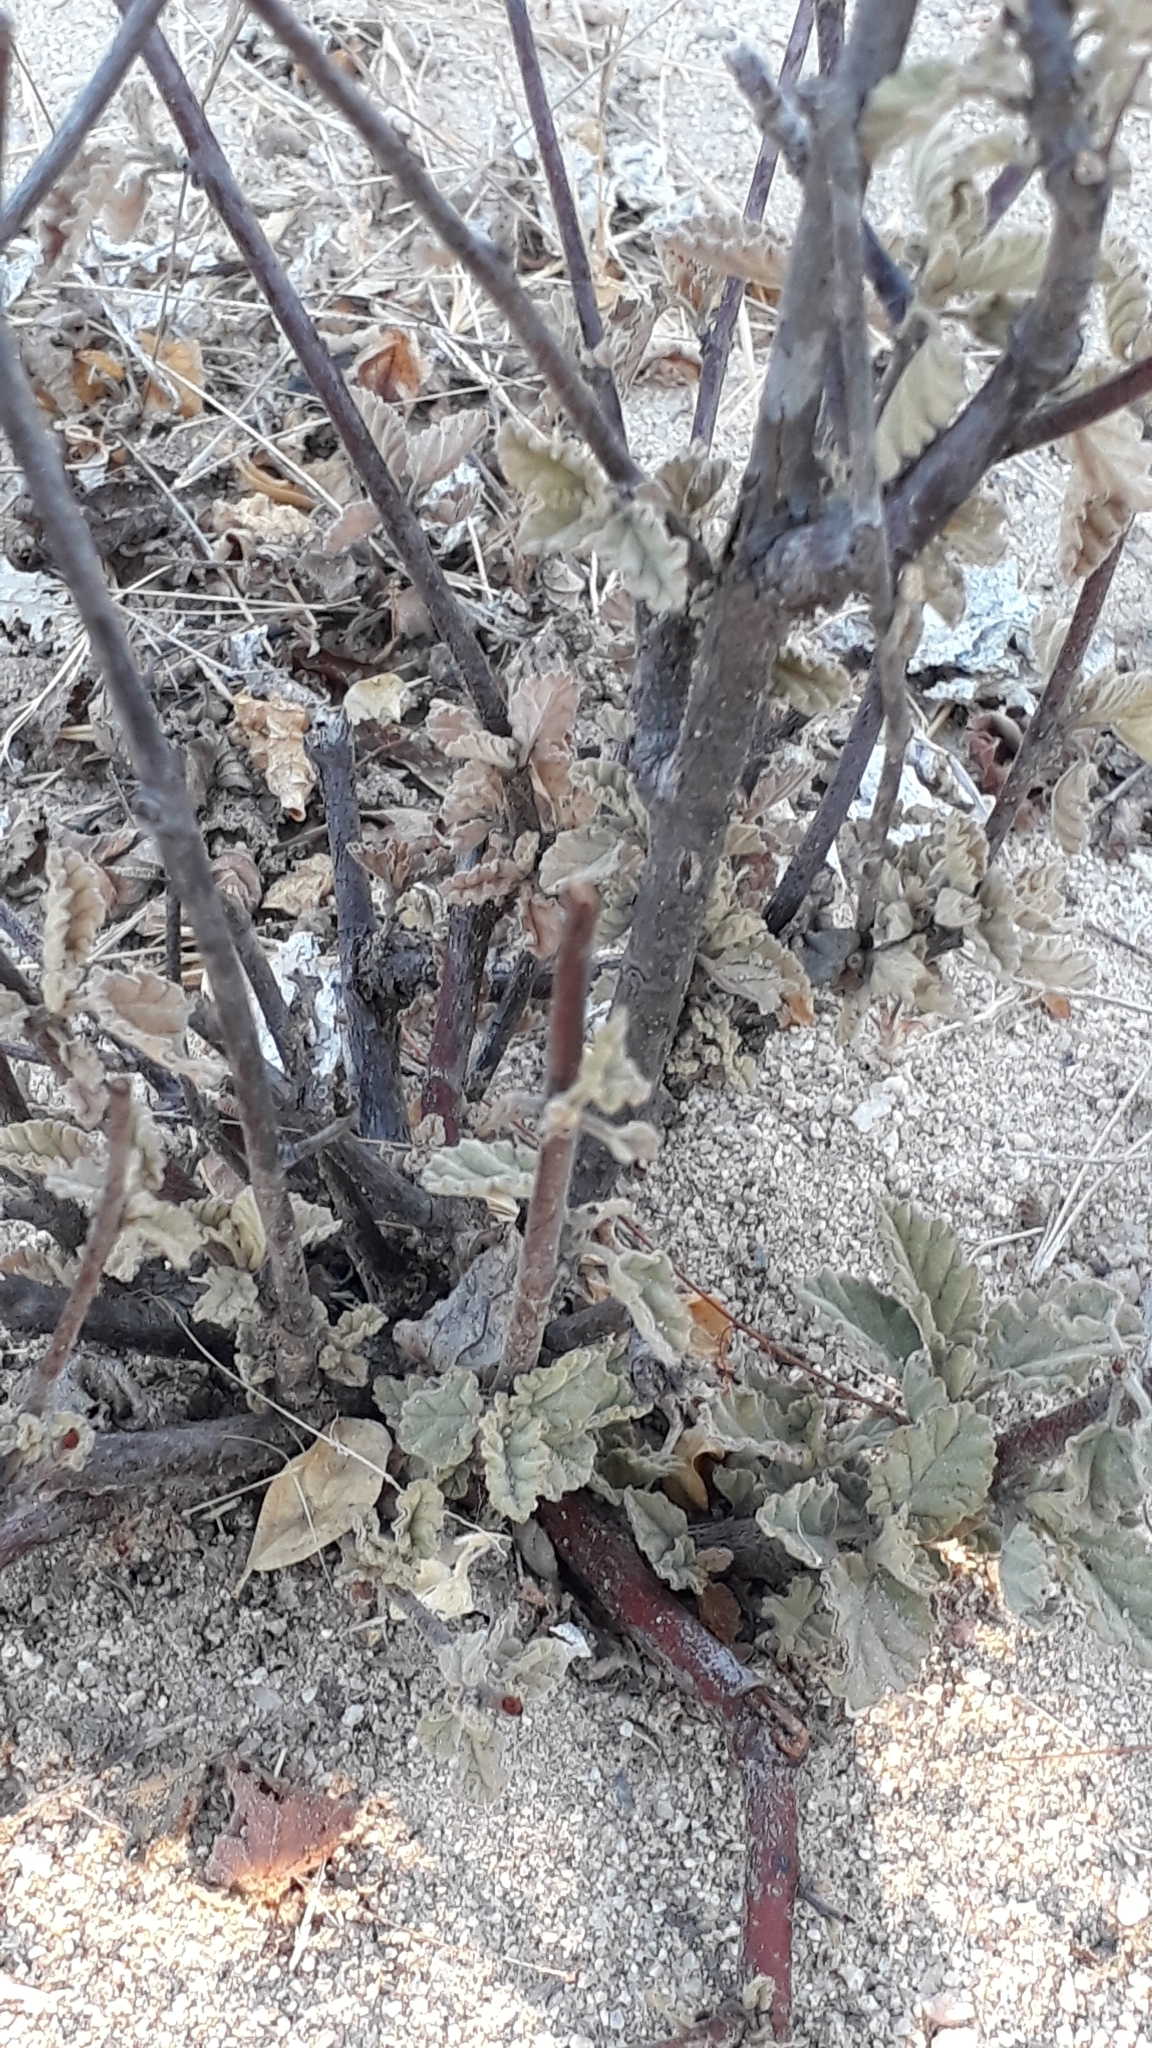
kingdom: Plantae
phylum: Tracheophyta
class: Magnoliopsida
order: Malvales
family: Malvaceae
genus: Melochia
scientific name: Melochia tomentosa
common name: Black torch
